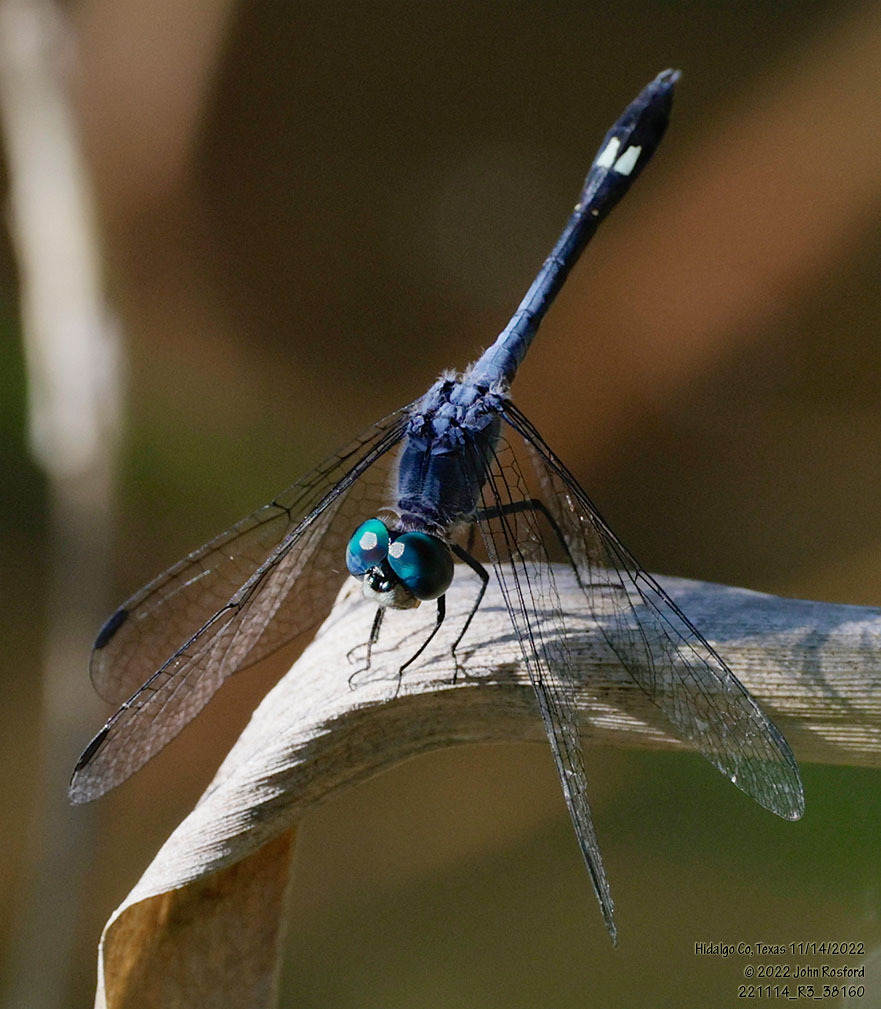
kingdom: Animalia
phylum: Arthropoda
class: Insecta
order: Odonata
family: Libellulidae
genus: Micrathyria
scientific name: Micrathyria aequalis
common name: Spot-tailed dasher
